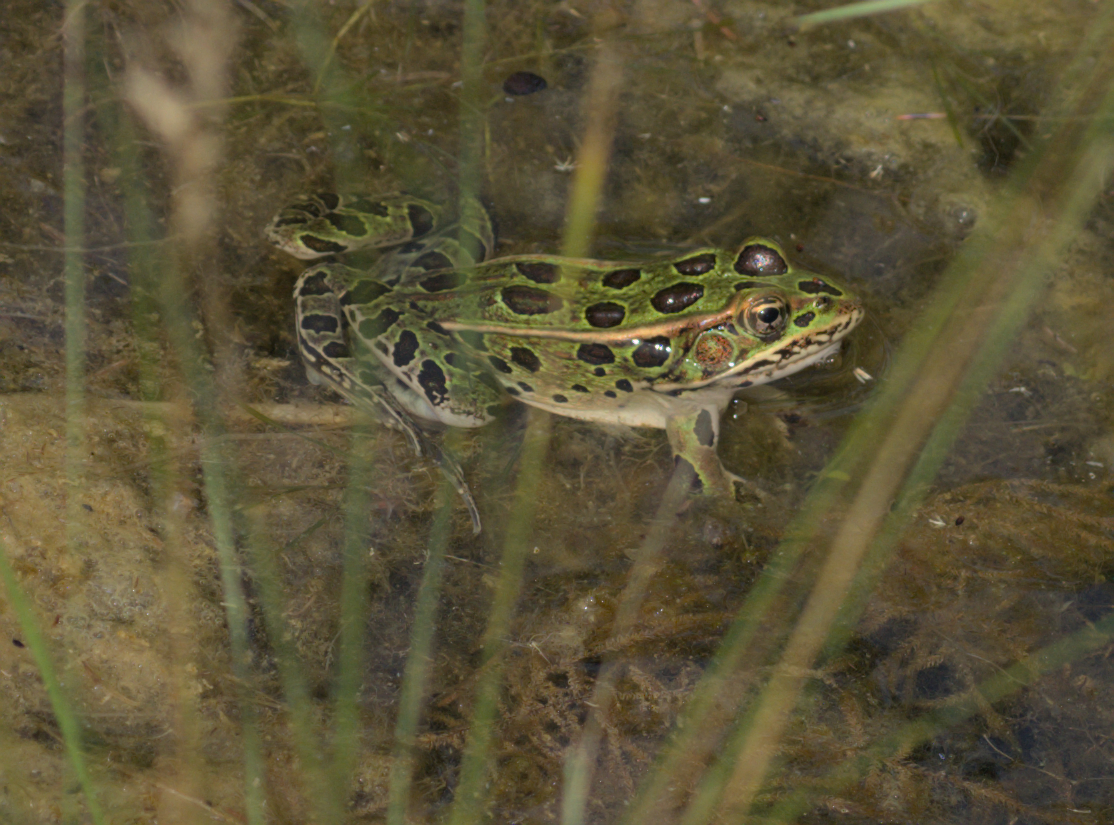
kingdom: Animalia
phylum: Chordata
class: Amphibia
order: Anura
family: Ranidae
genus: Lithobates
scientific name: Lithobates pipiens
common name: Northern leopard frog
